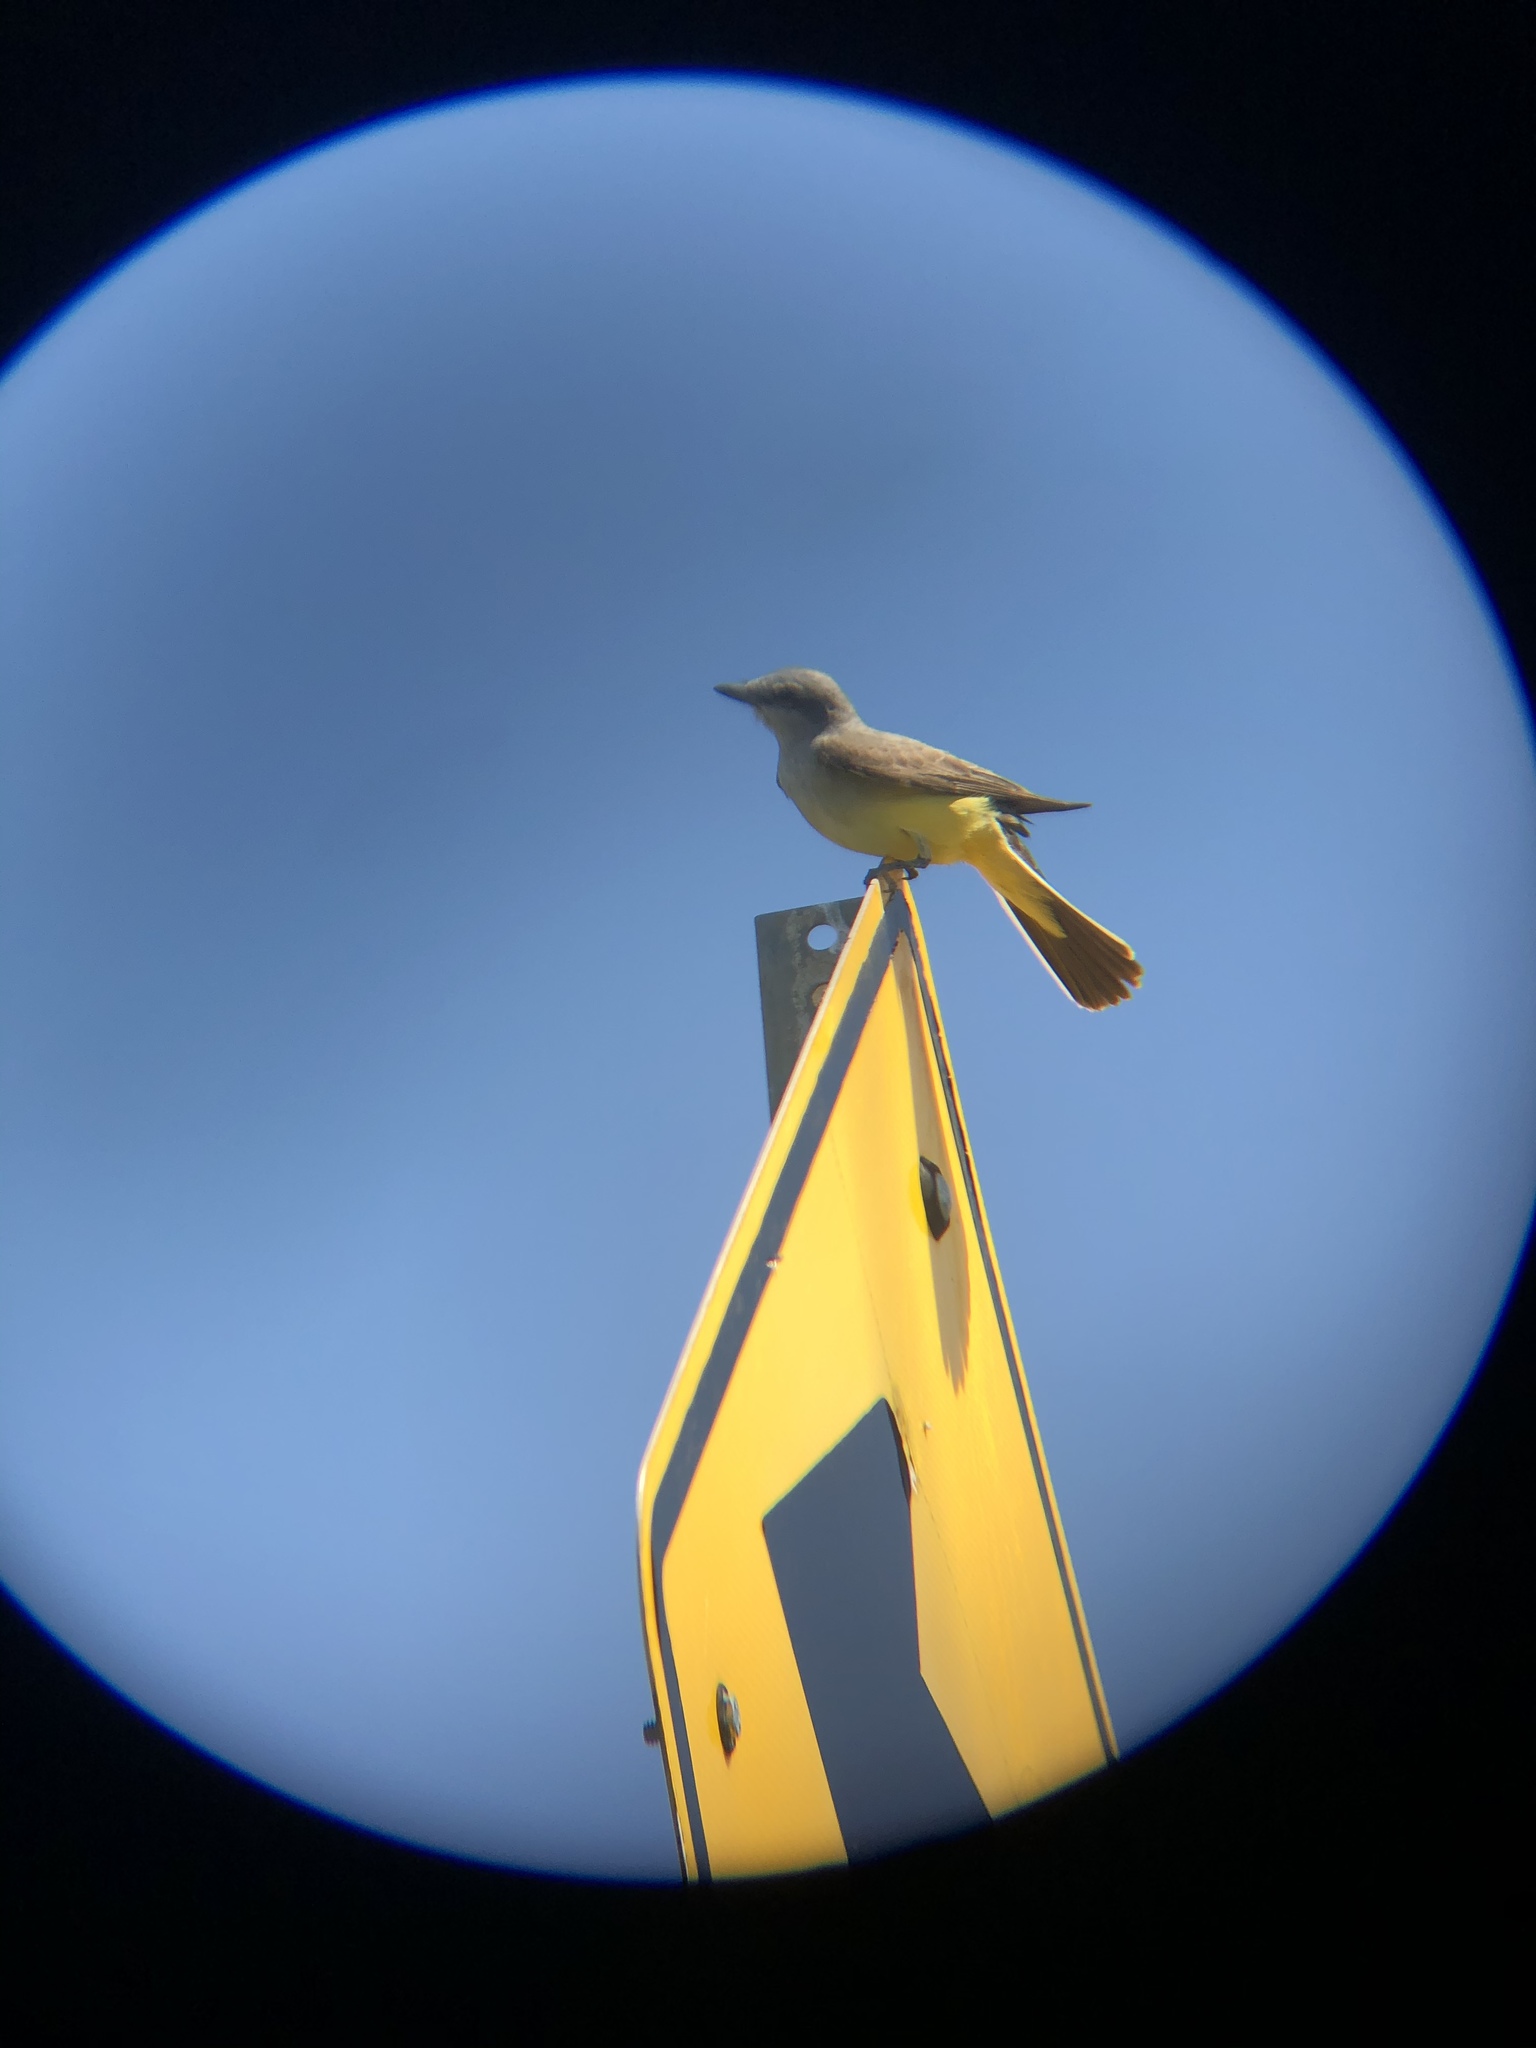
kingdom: Animalia
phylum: Chordata
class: Aves
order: Passeriformes
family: Tyrannidae
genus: Tyrannus
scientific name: Tyrannus verticalis
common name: Western kingbird
